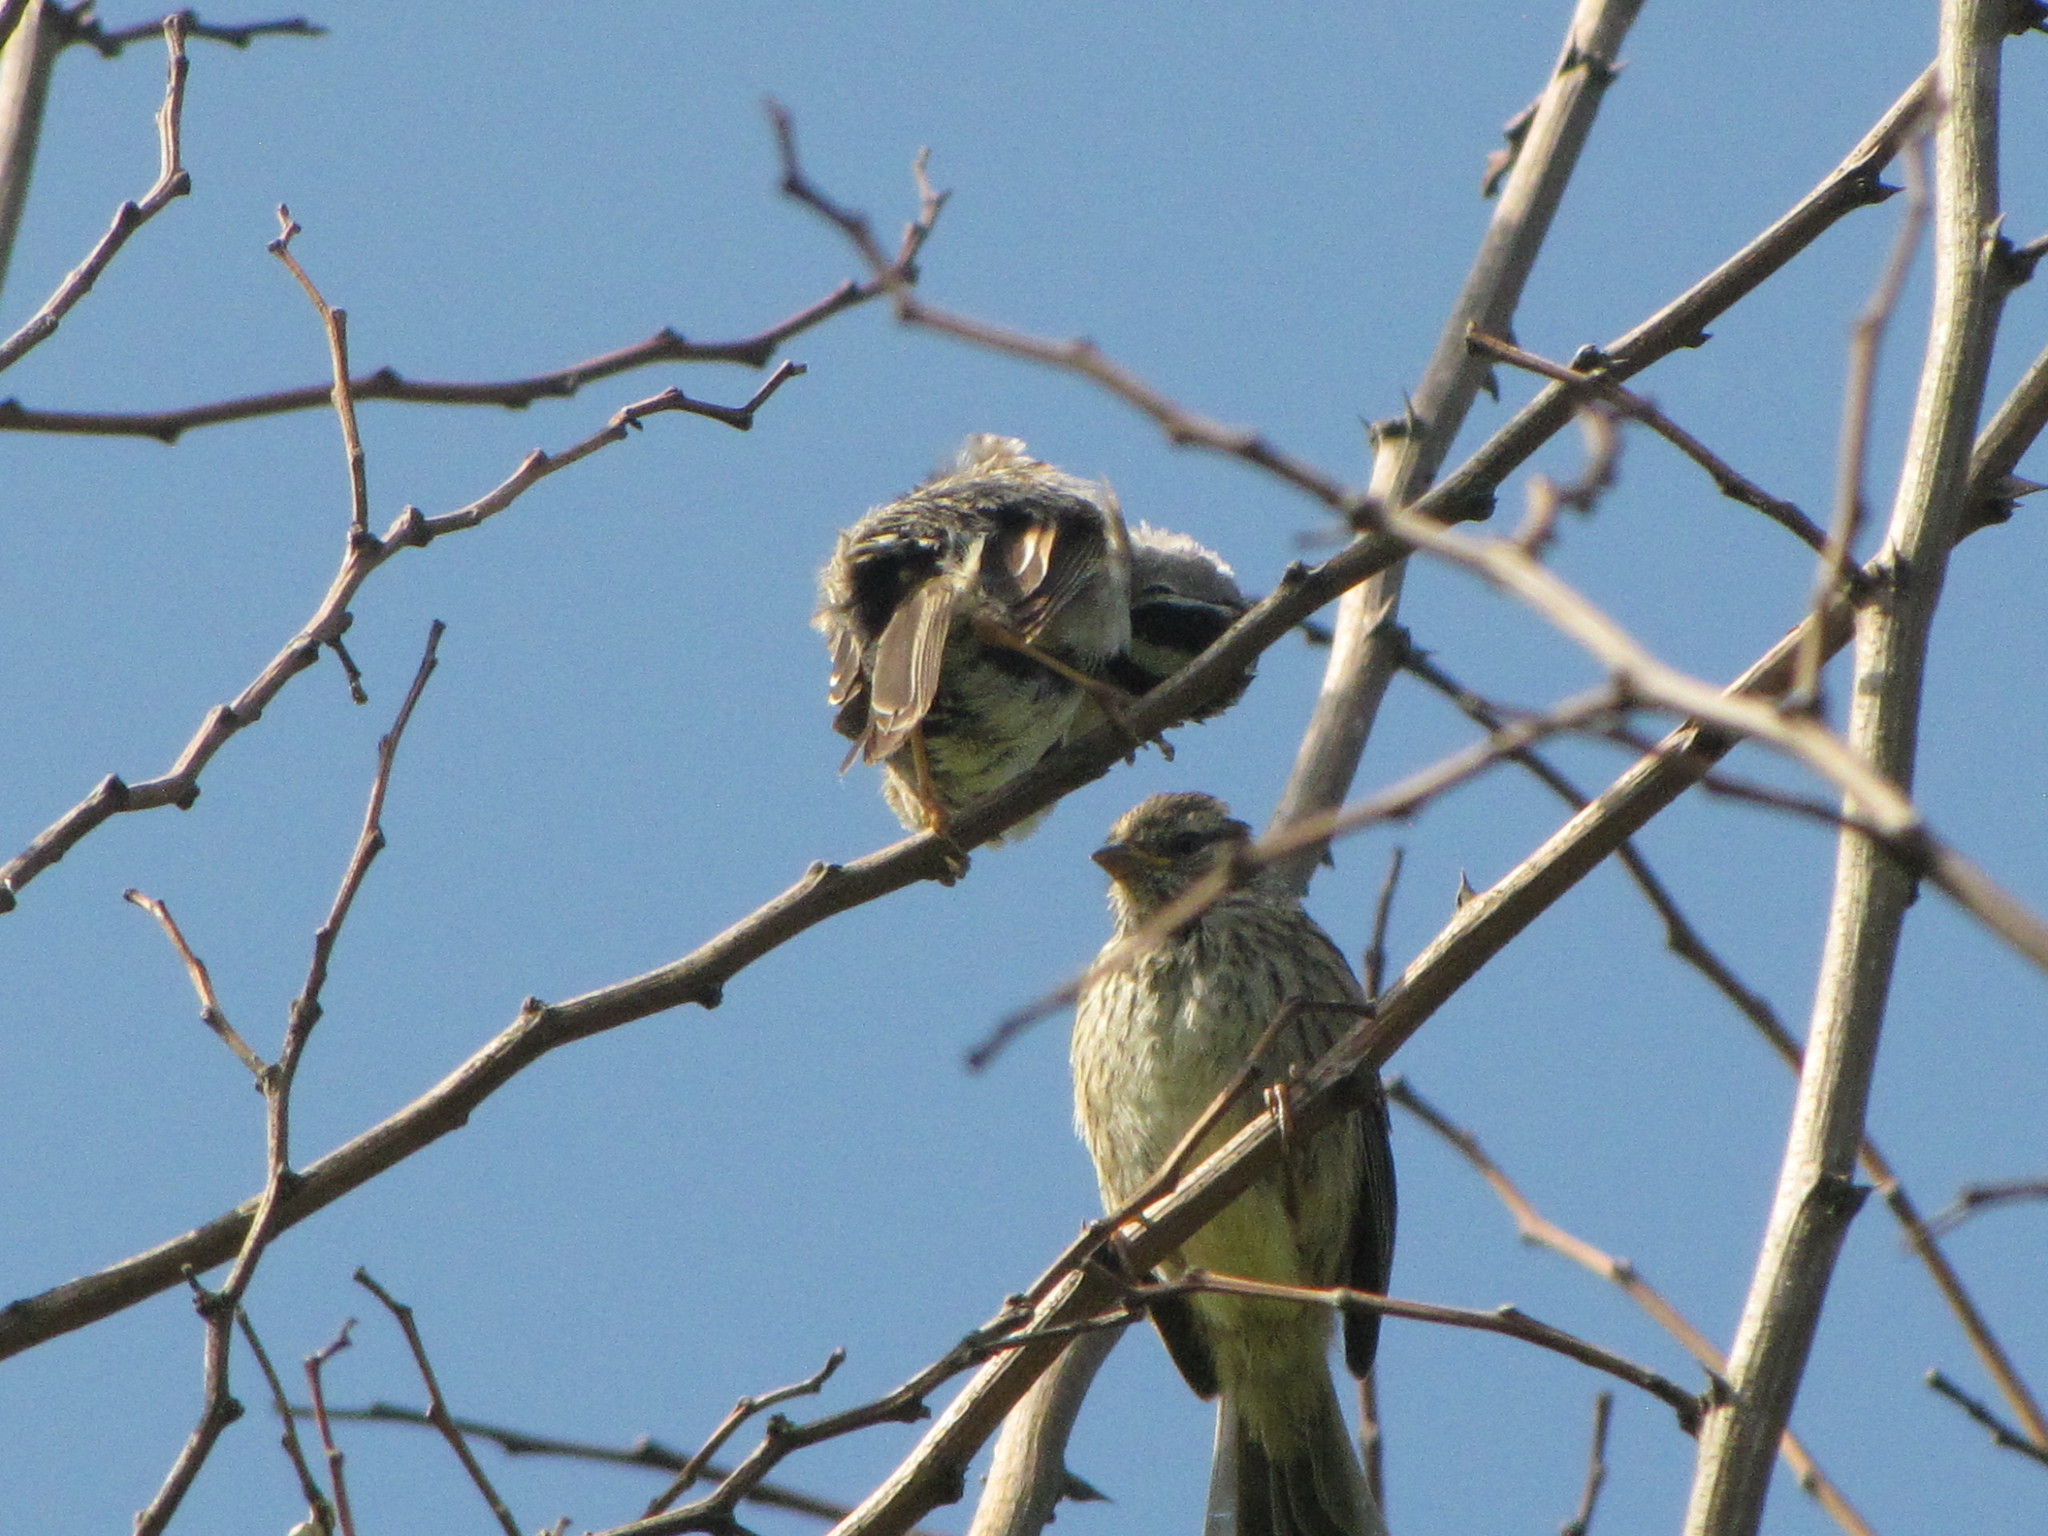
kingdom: Animalia
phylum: Chordata
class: Aves
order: Passeriformes
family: Passerellidae
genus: Zonotrichia
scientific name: Zonotrichia leucophrys
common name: White-crowned sparrow
